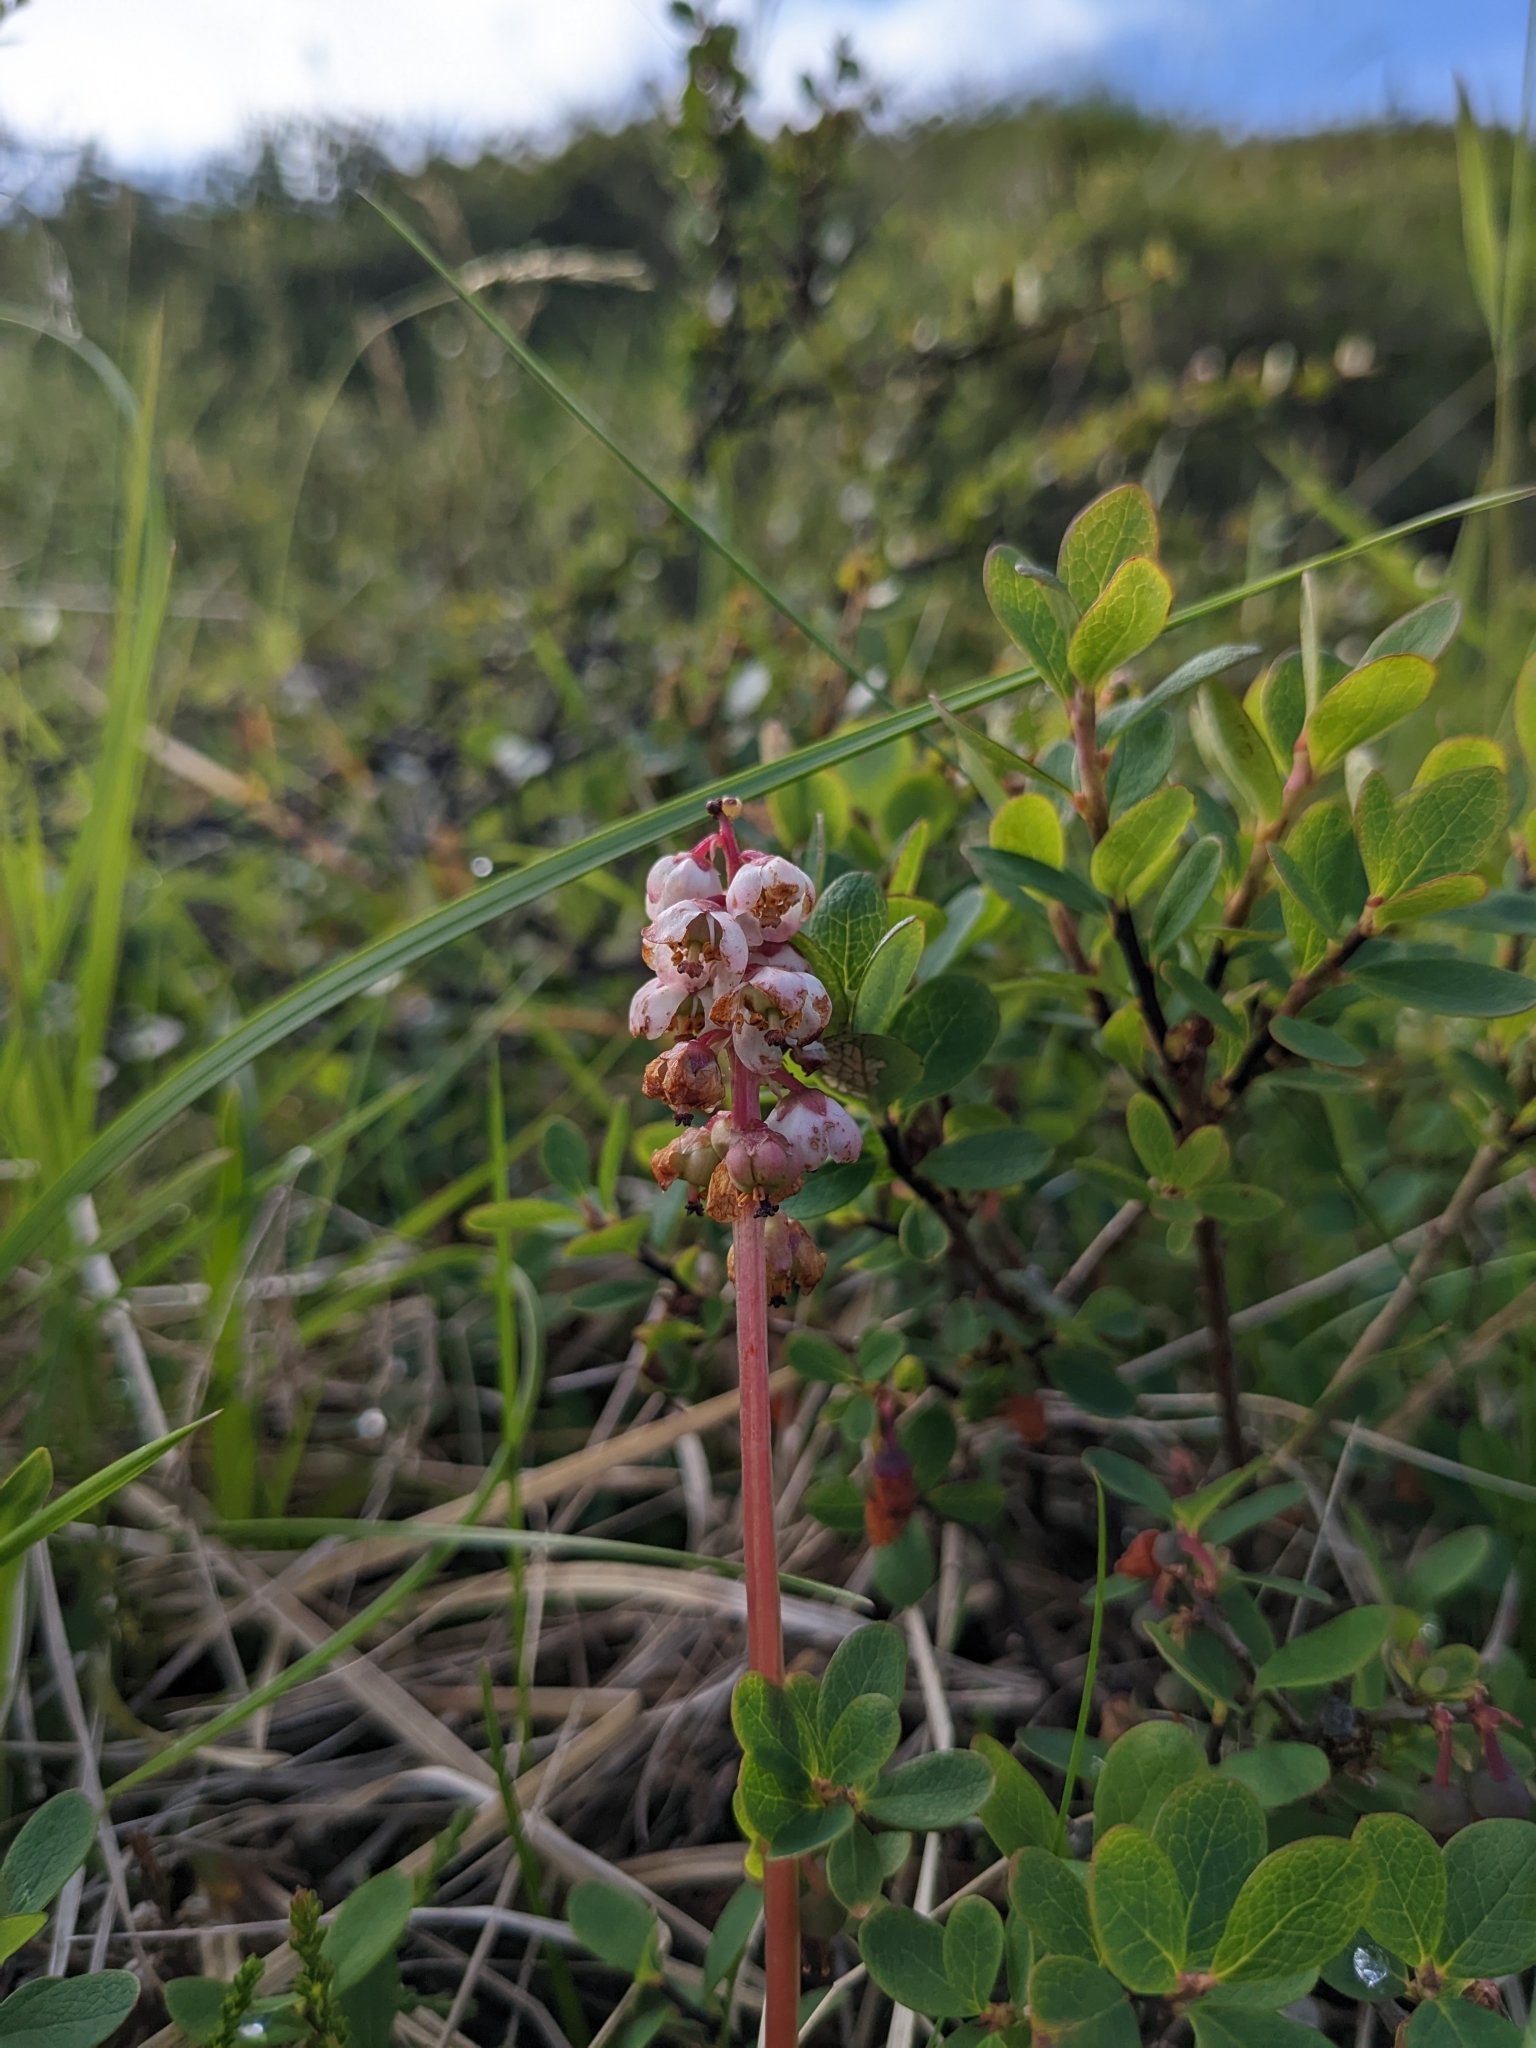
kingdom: Plantae
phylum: Tracheophyta
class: Magnoliopsida
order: Ericales
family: Ericaceae
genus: Pyrola
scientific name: Pyrola minor
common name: Common wintergreen
